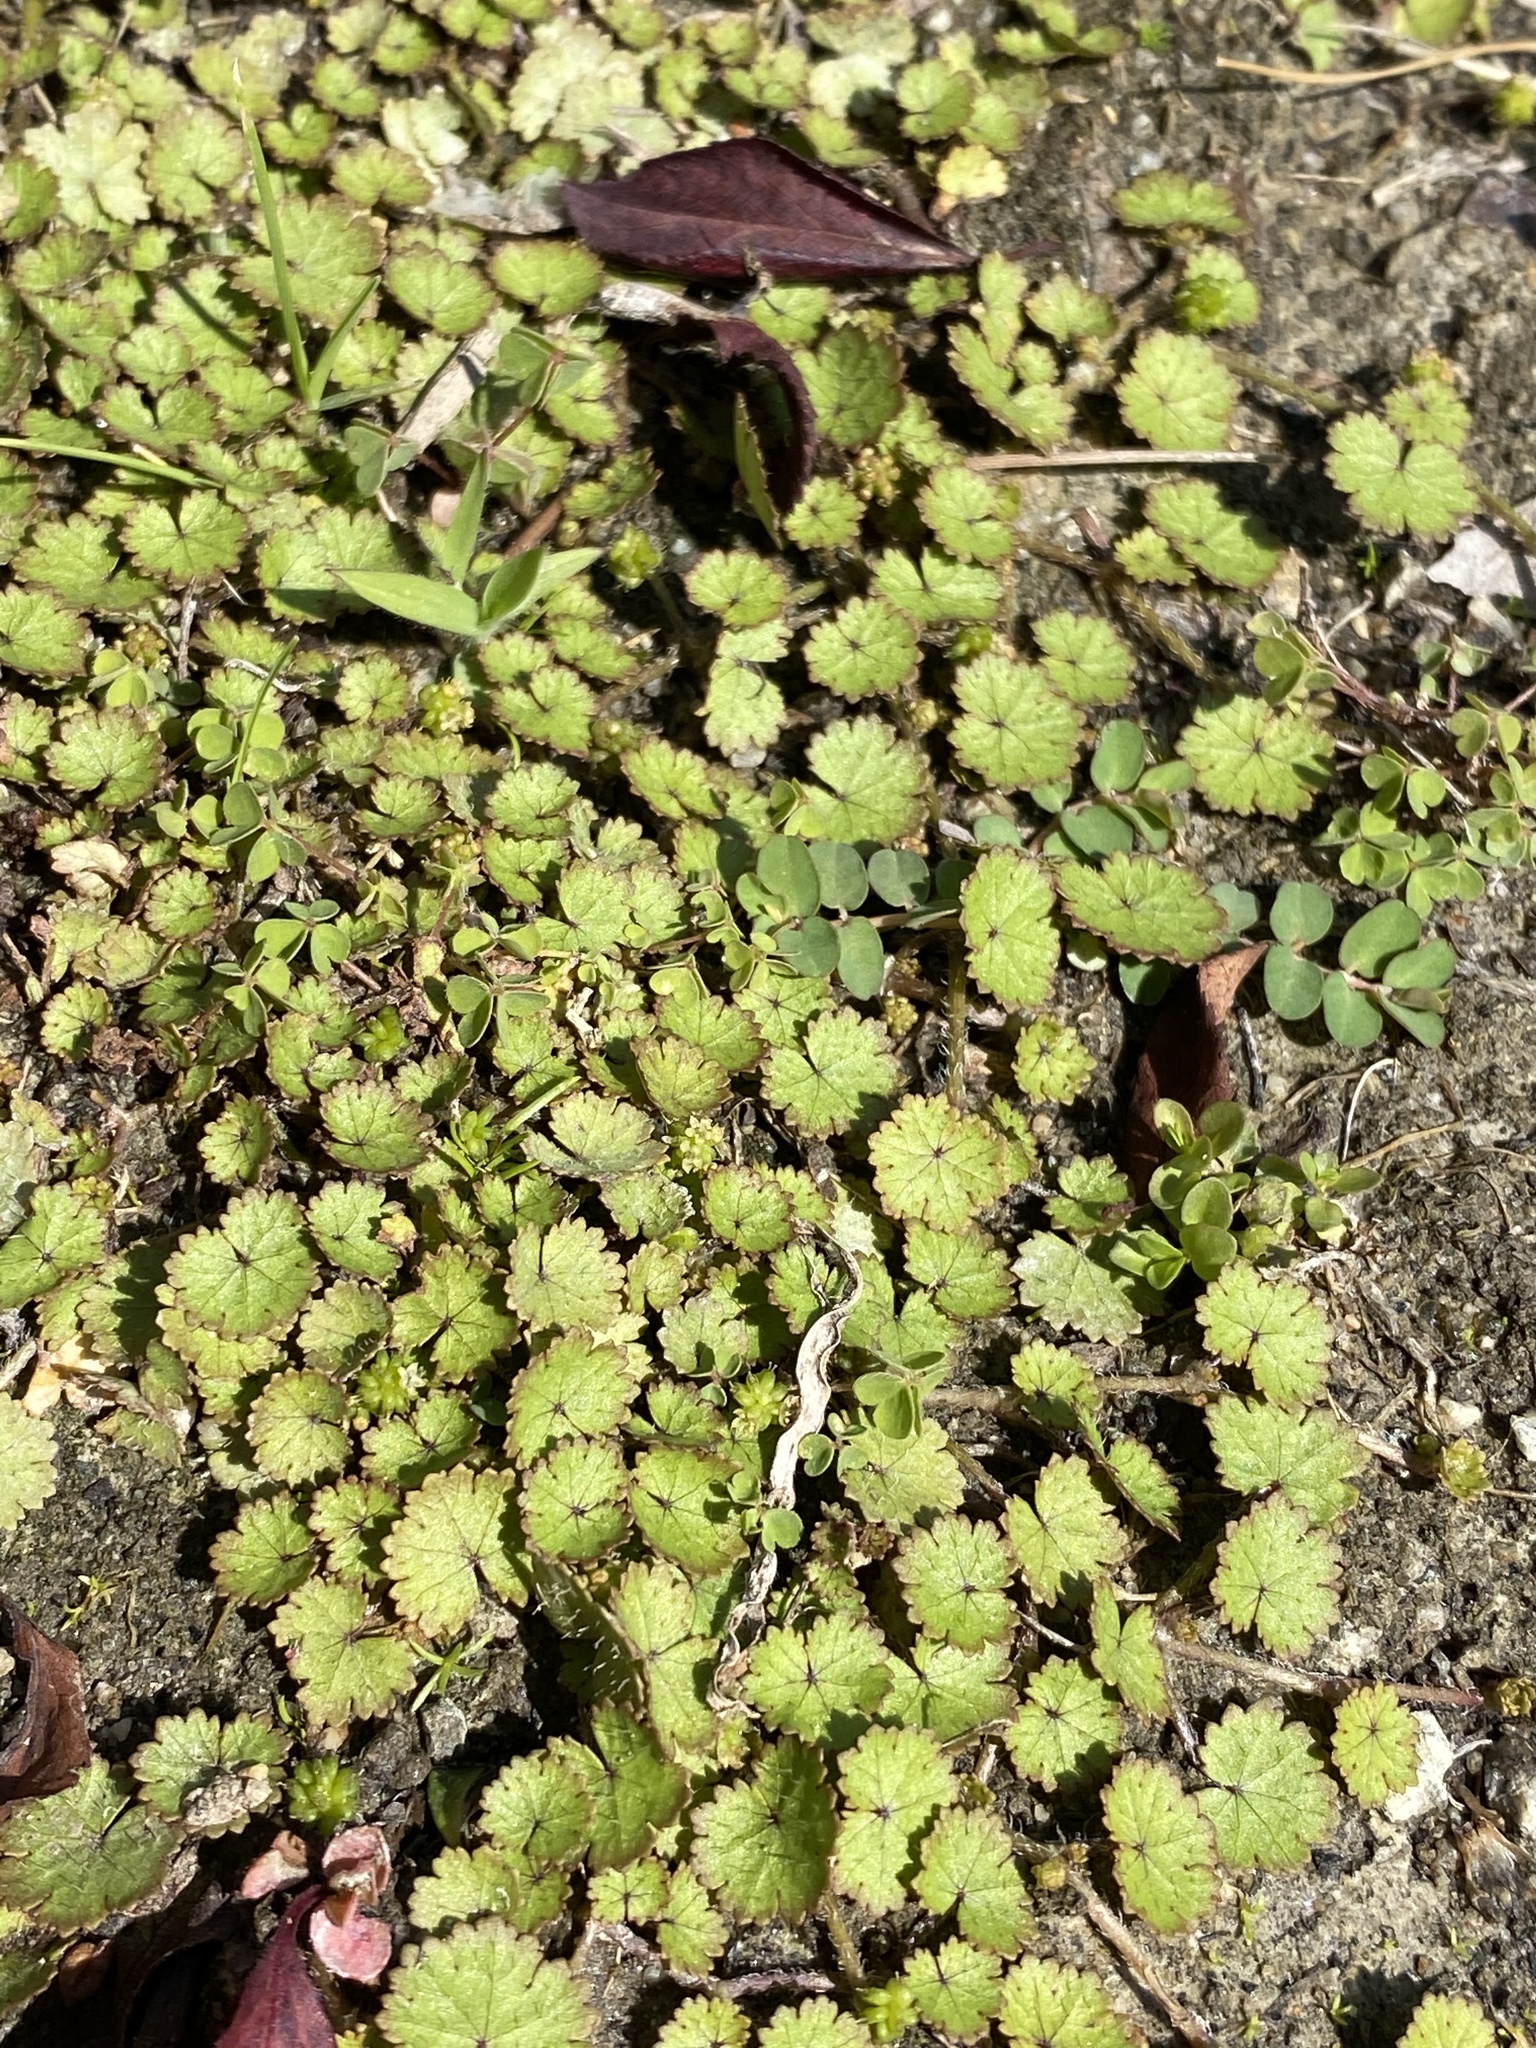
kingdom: Plantae
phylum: Tracheophyta
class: Magnoliopsida
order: Apiales
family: Araliaceae
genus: Hydrocotyle
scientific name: Hydrocotyle moschata
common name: Hairy pennywort
